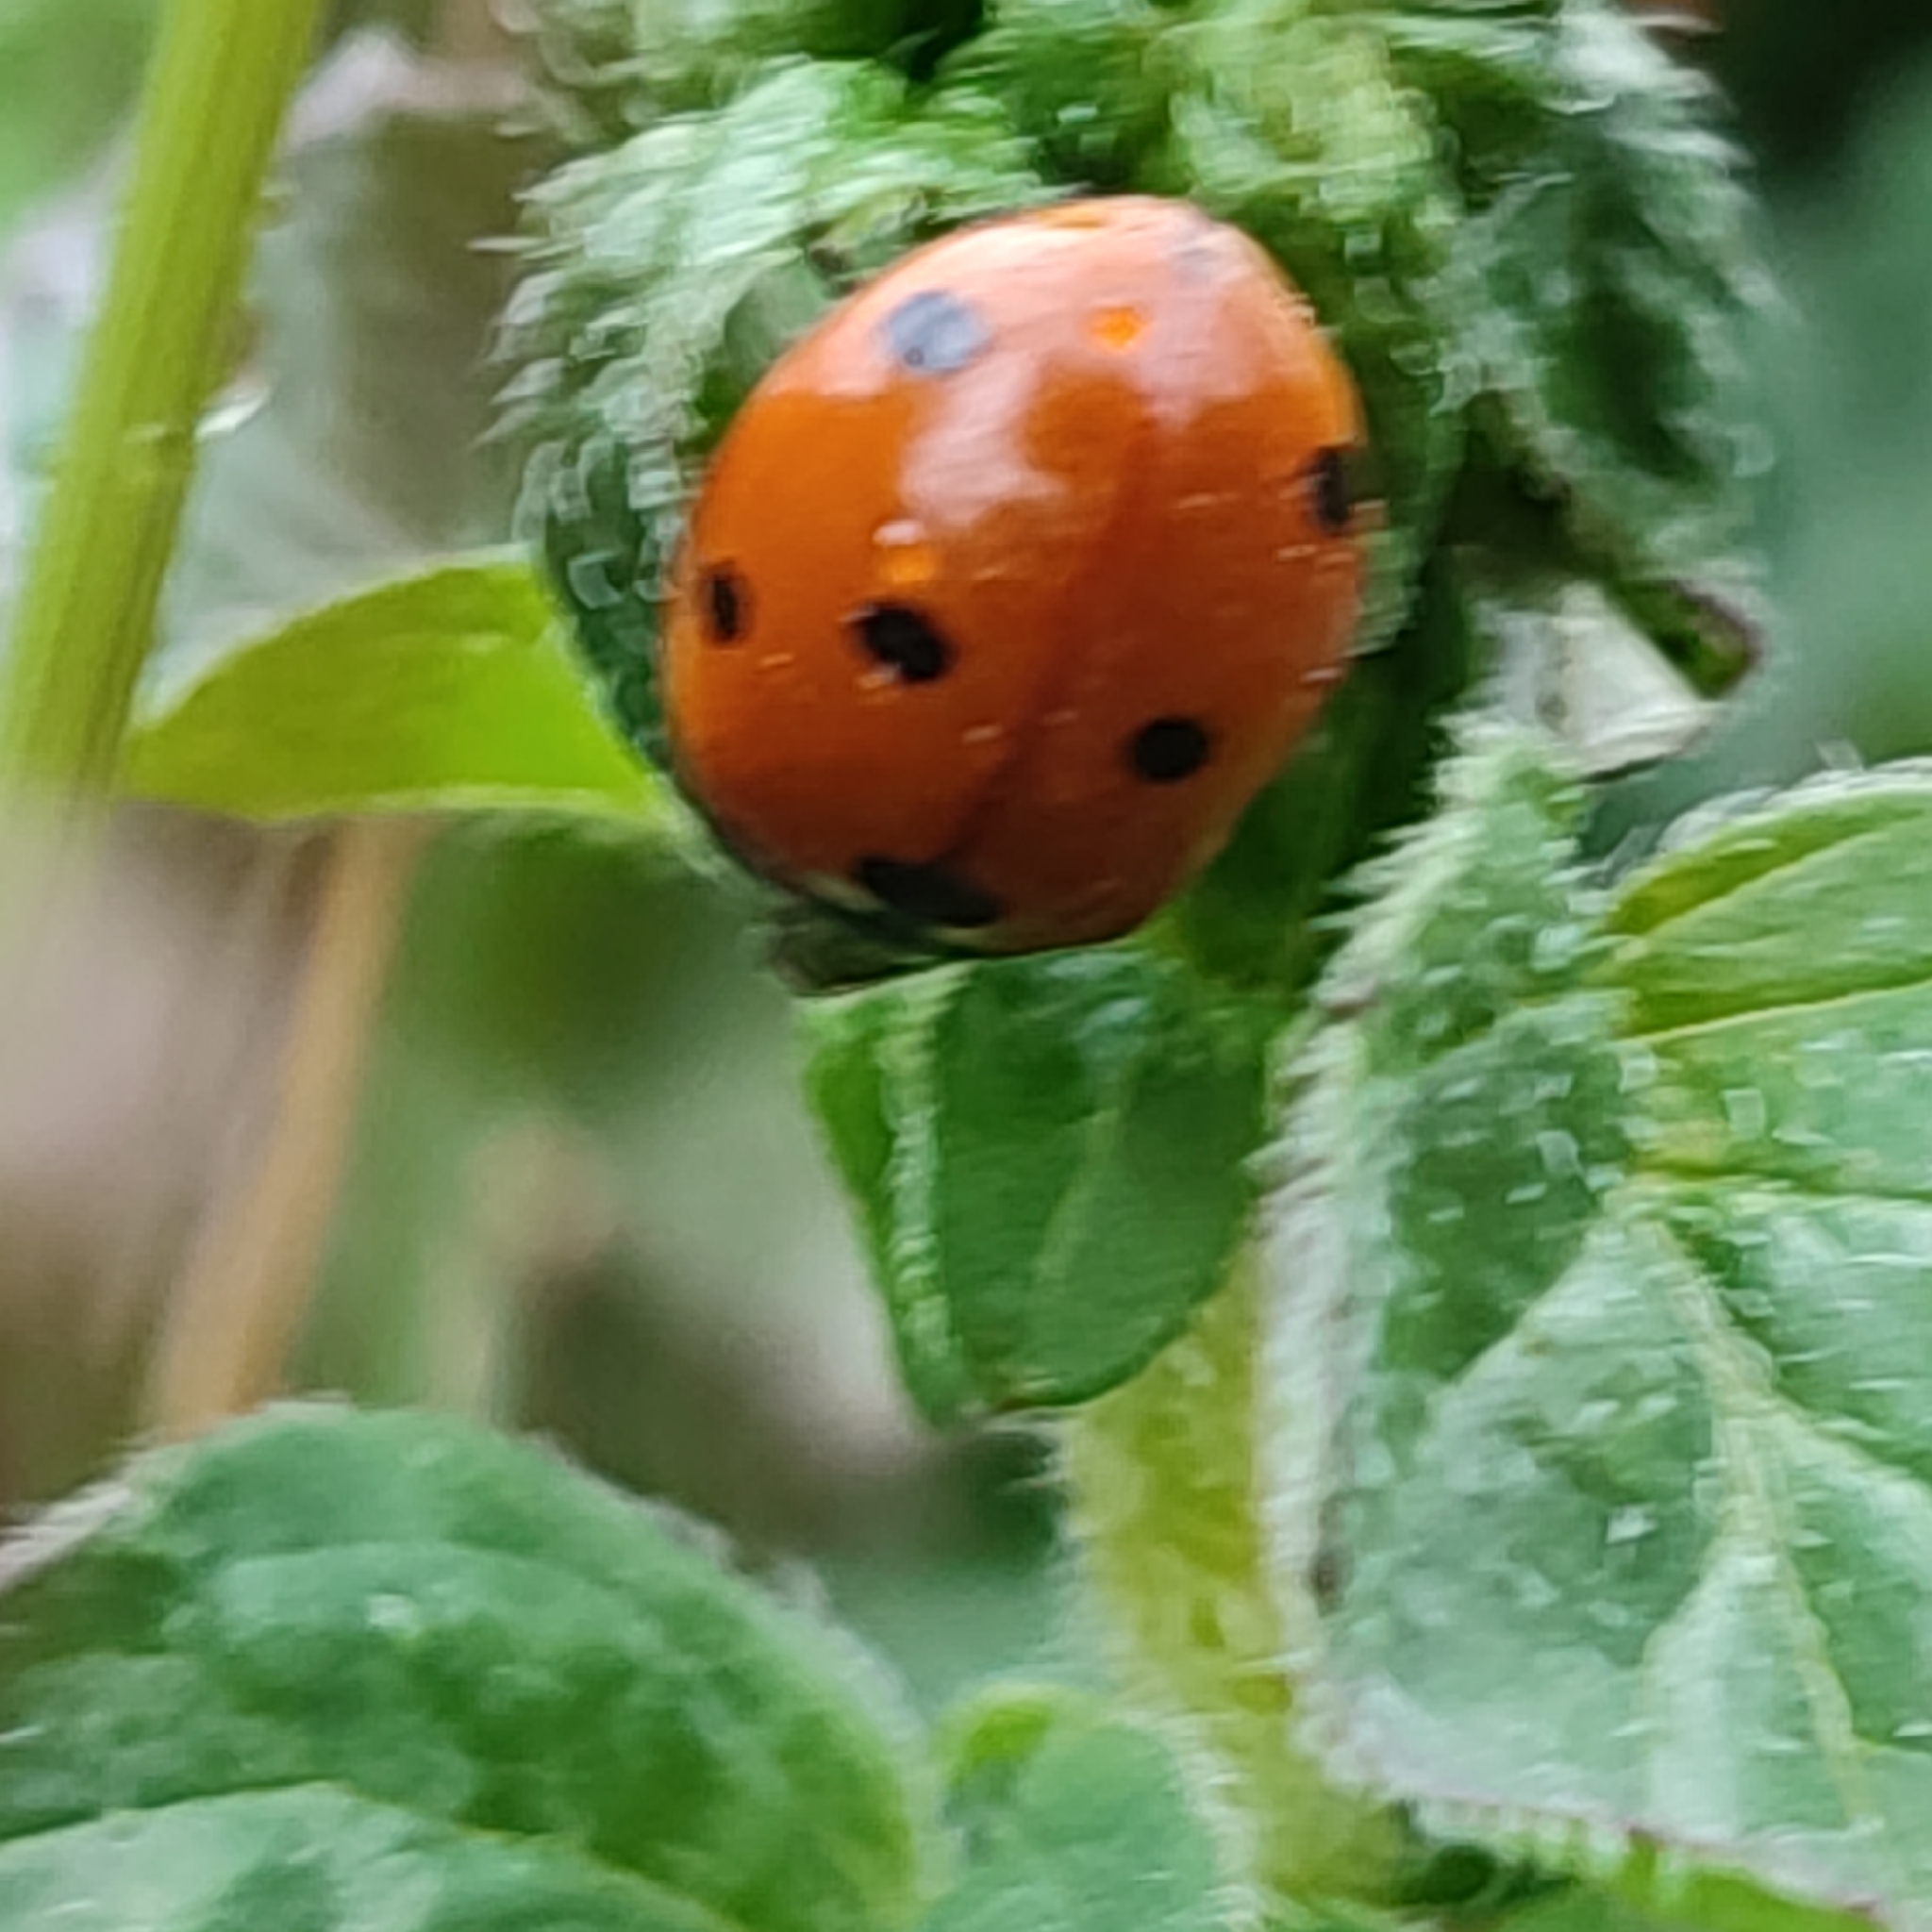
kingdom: Animalia
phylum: Arthropoda
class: Insecta
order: Coleoptera
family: Coccinellidae
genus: Coccinella
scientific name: Coccinella septempunctata
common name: Sevenspotted lady beetle
